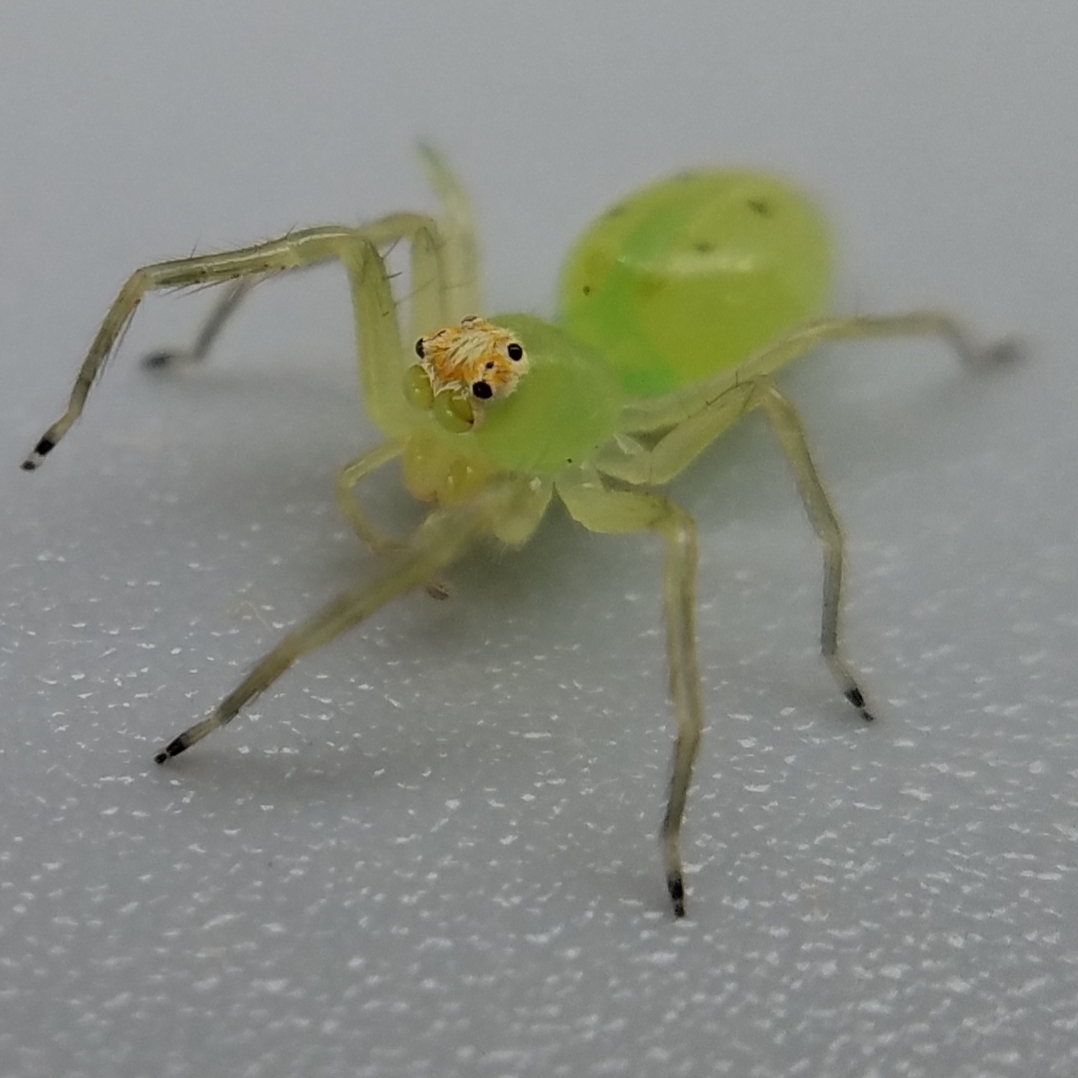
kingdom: Animalia
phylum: Arthropoda
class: Arachnida
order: Araneae
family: Salticidae
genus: Lyssomanes
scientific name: Lyssomanes viridis
